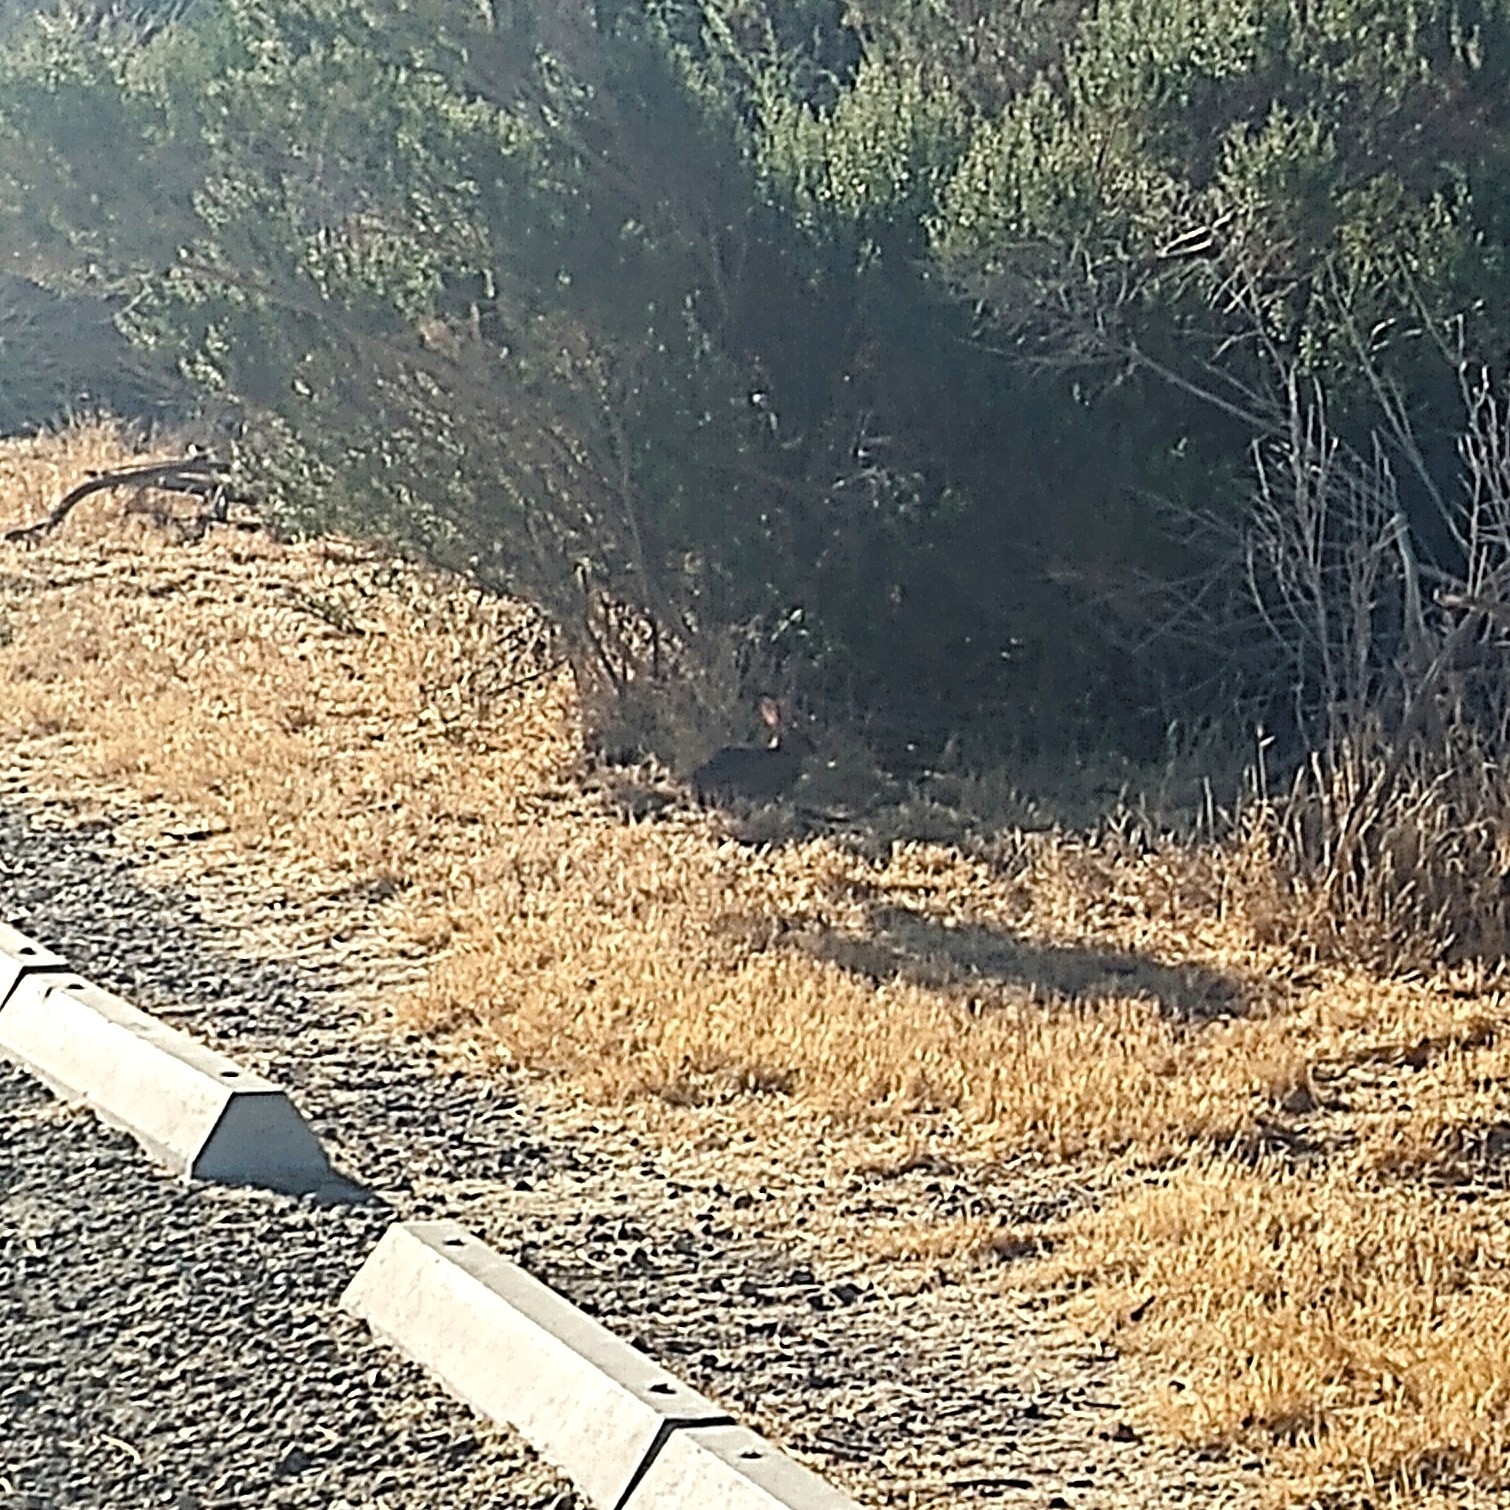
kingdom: Animalia
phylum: Chordata
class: Mammalia
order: Lagomorpha
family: Leporidae
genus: Sylvilagus
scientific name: Sylvilagus audubonii
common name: Desert cottontail
